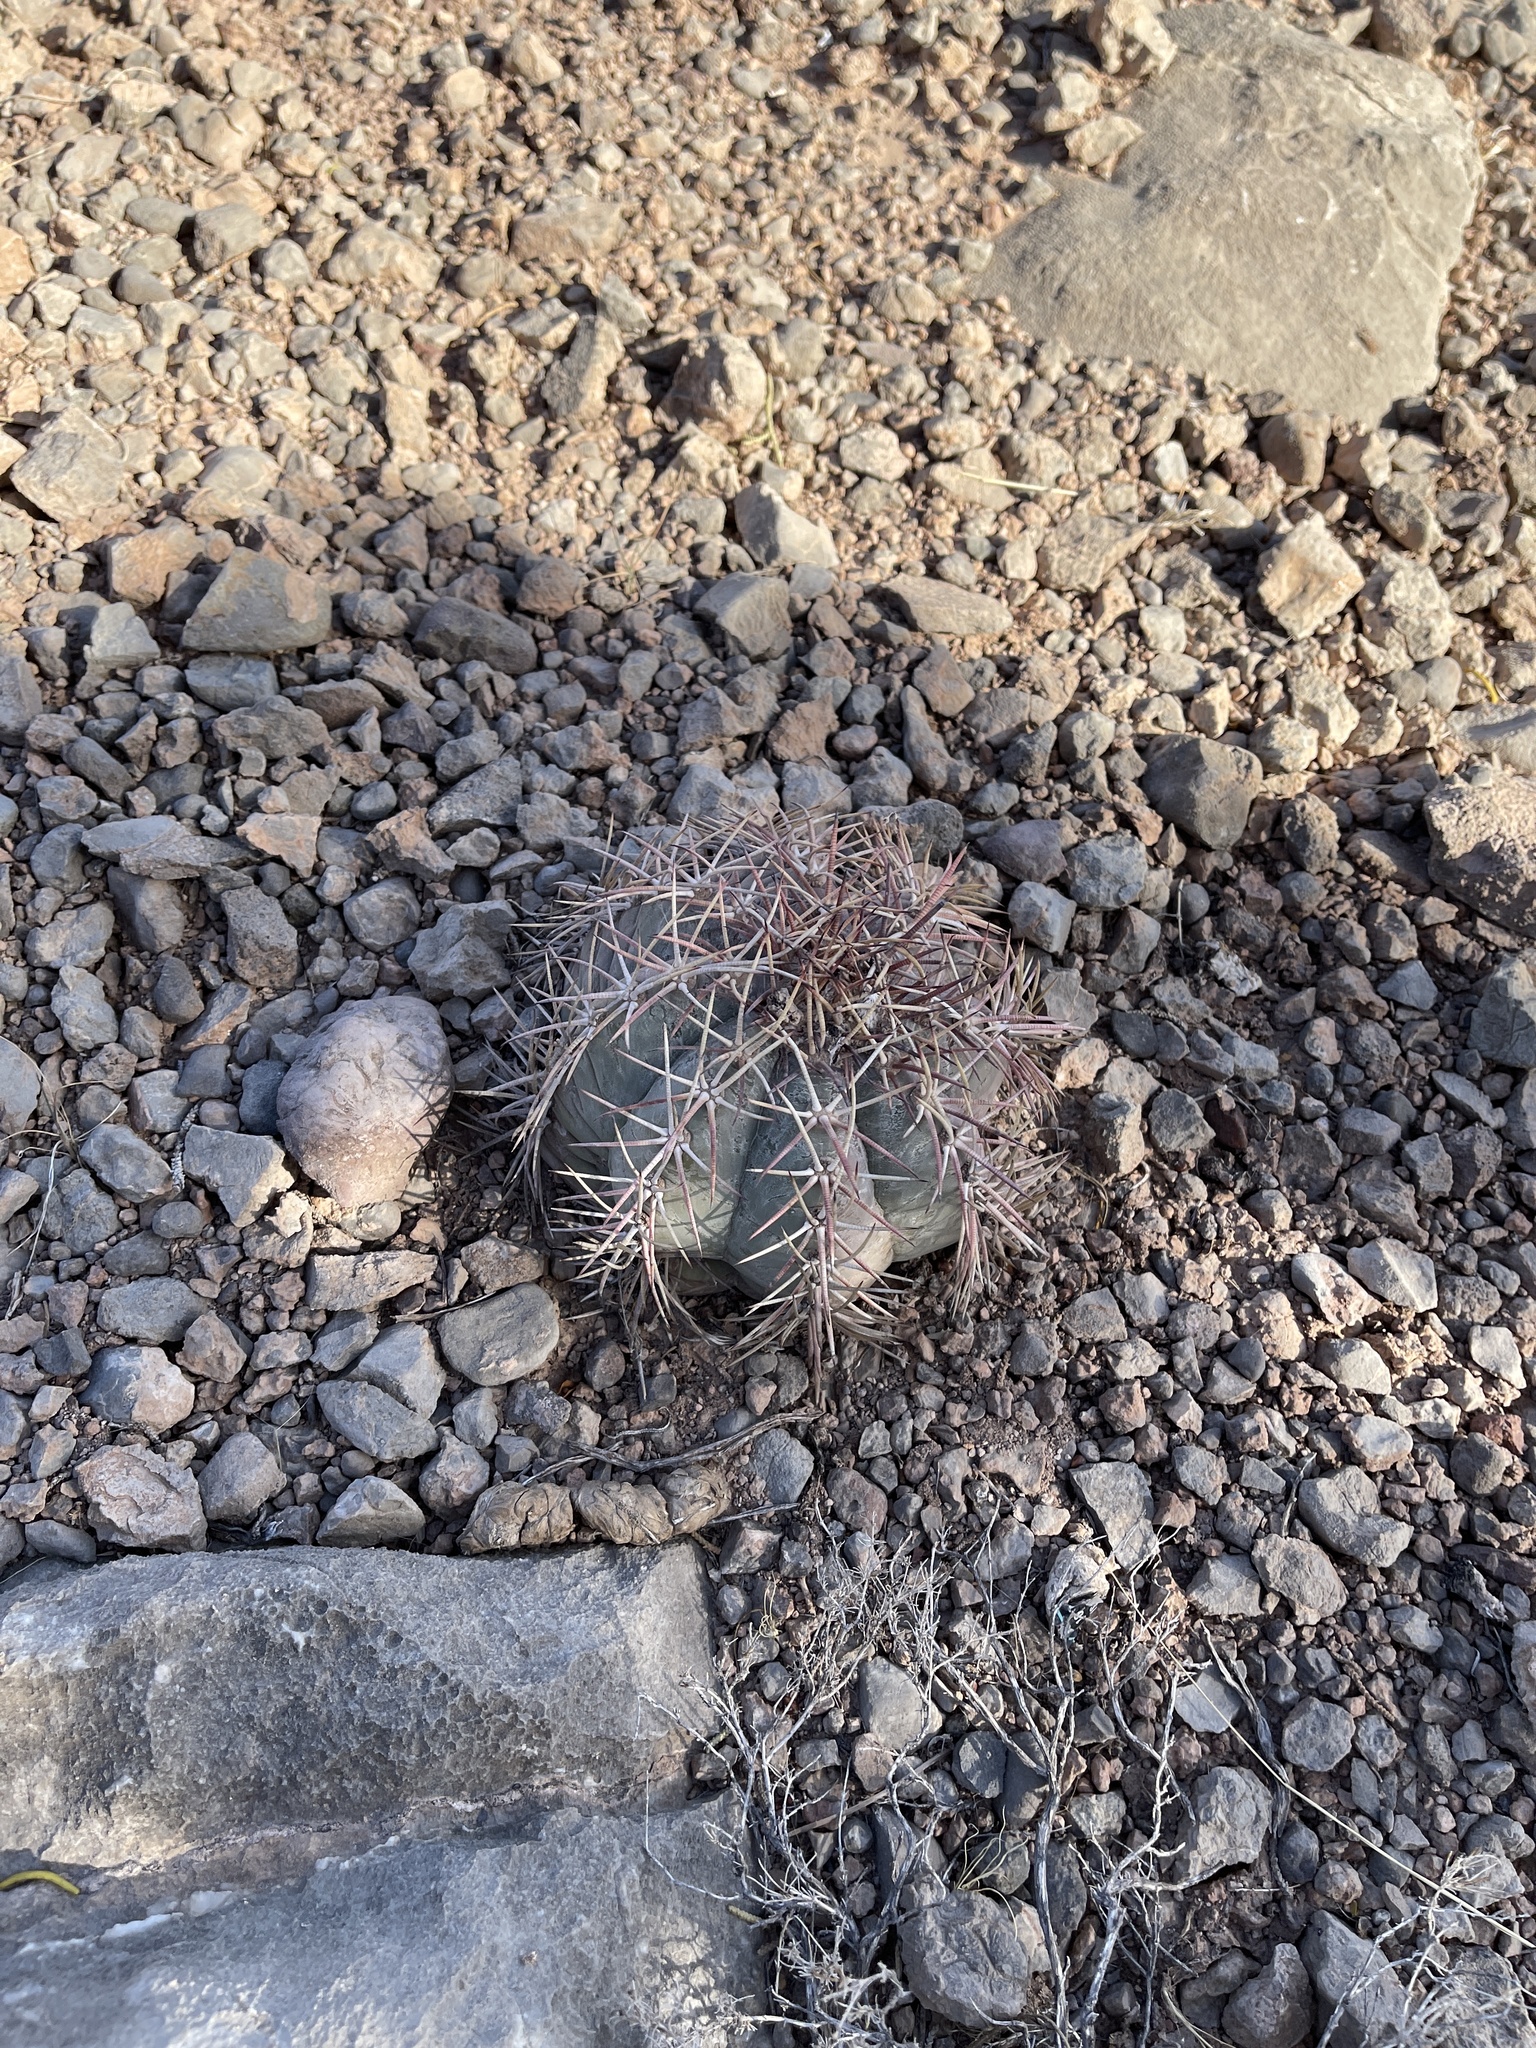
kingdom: Plantae
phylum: Tracheophyta
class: Magnoliopsida
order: Caryophyllales
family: Cactaceae
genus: Echinocactus
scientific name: Echinocactus horizonthalonius
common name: Devilshead
